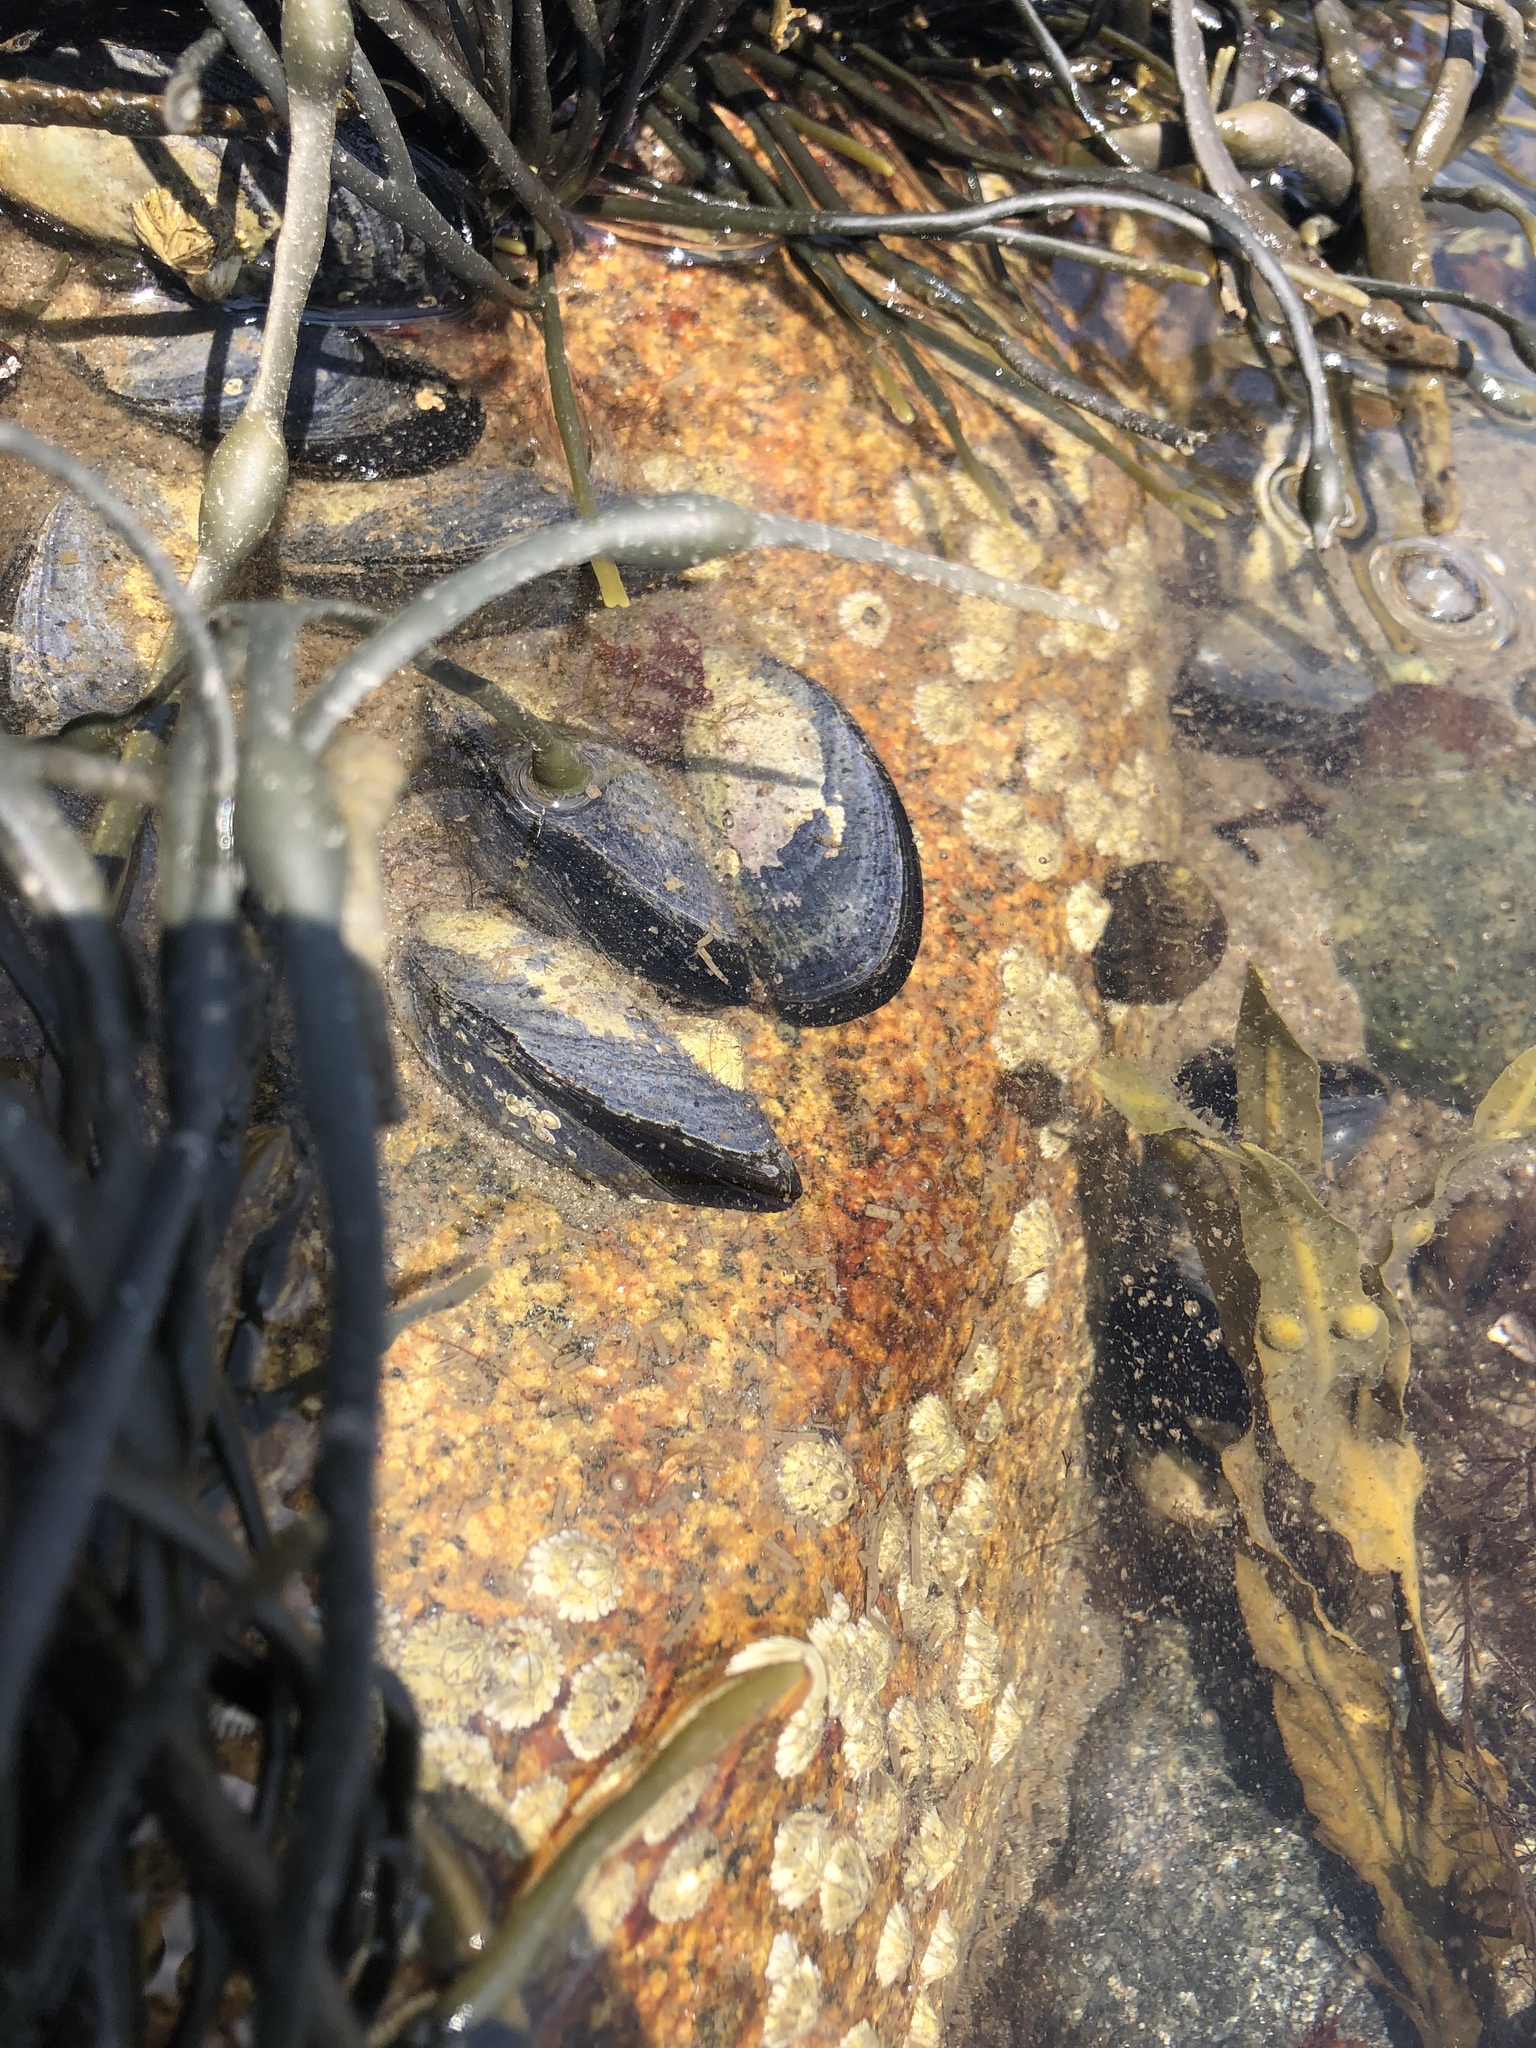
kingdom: Animalia
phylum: Mollusca
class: Bivalvia
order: Mytilida
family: Mytilidae
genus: Mytilus
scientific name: Mytilus edulis
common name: Blue mussel
